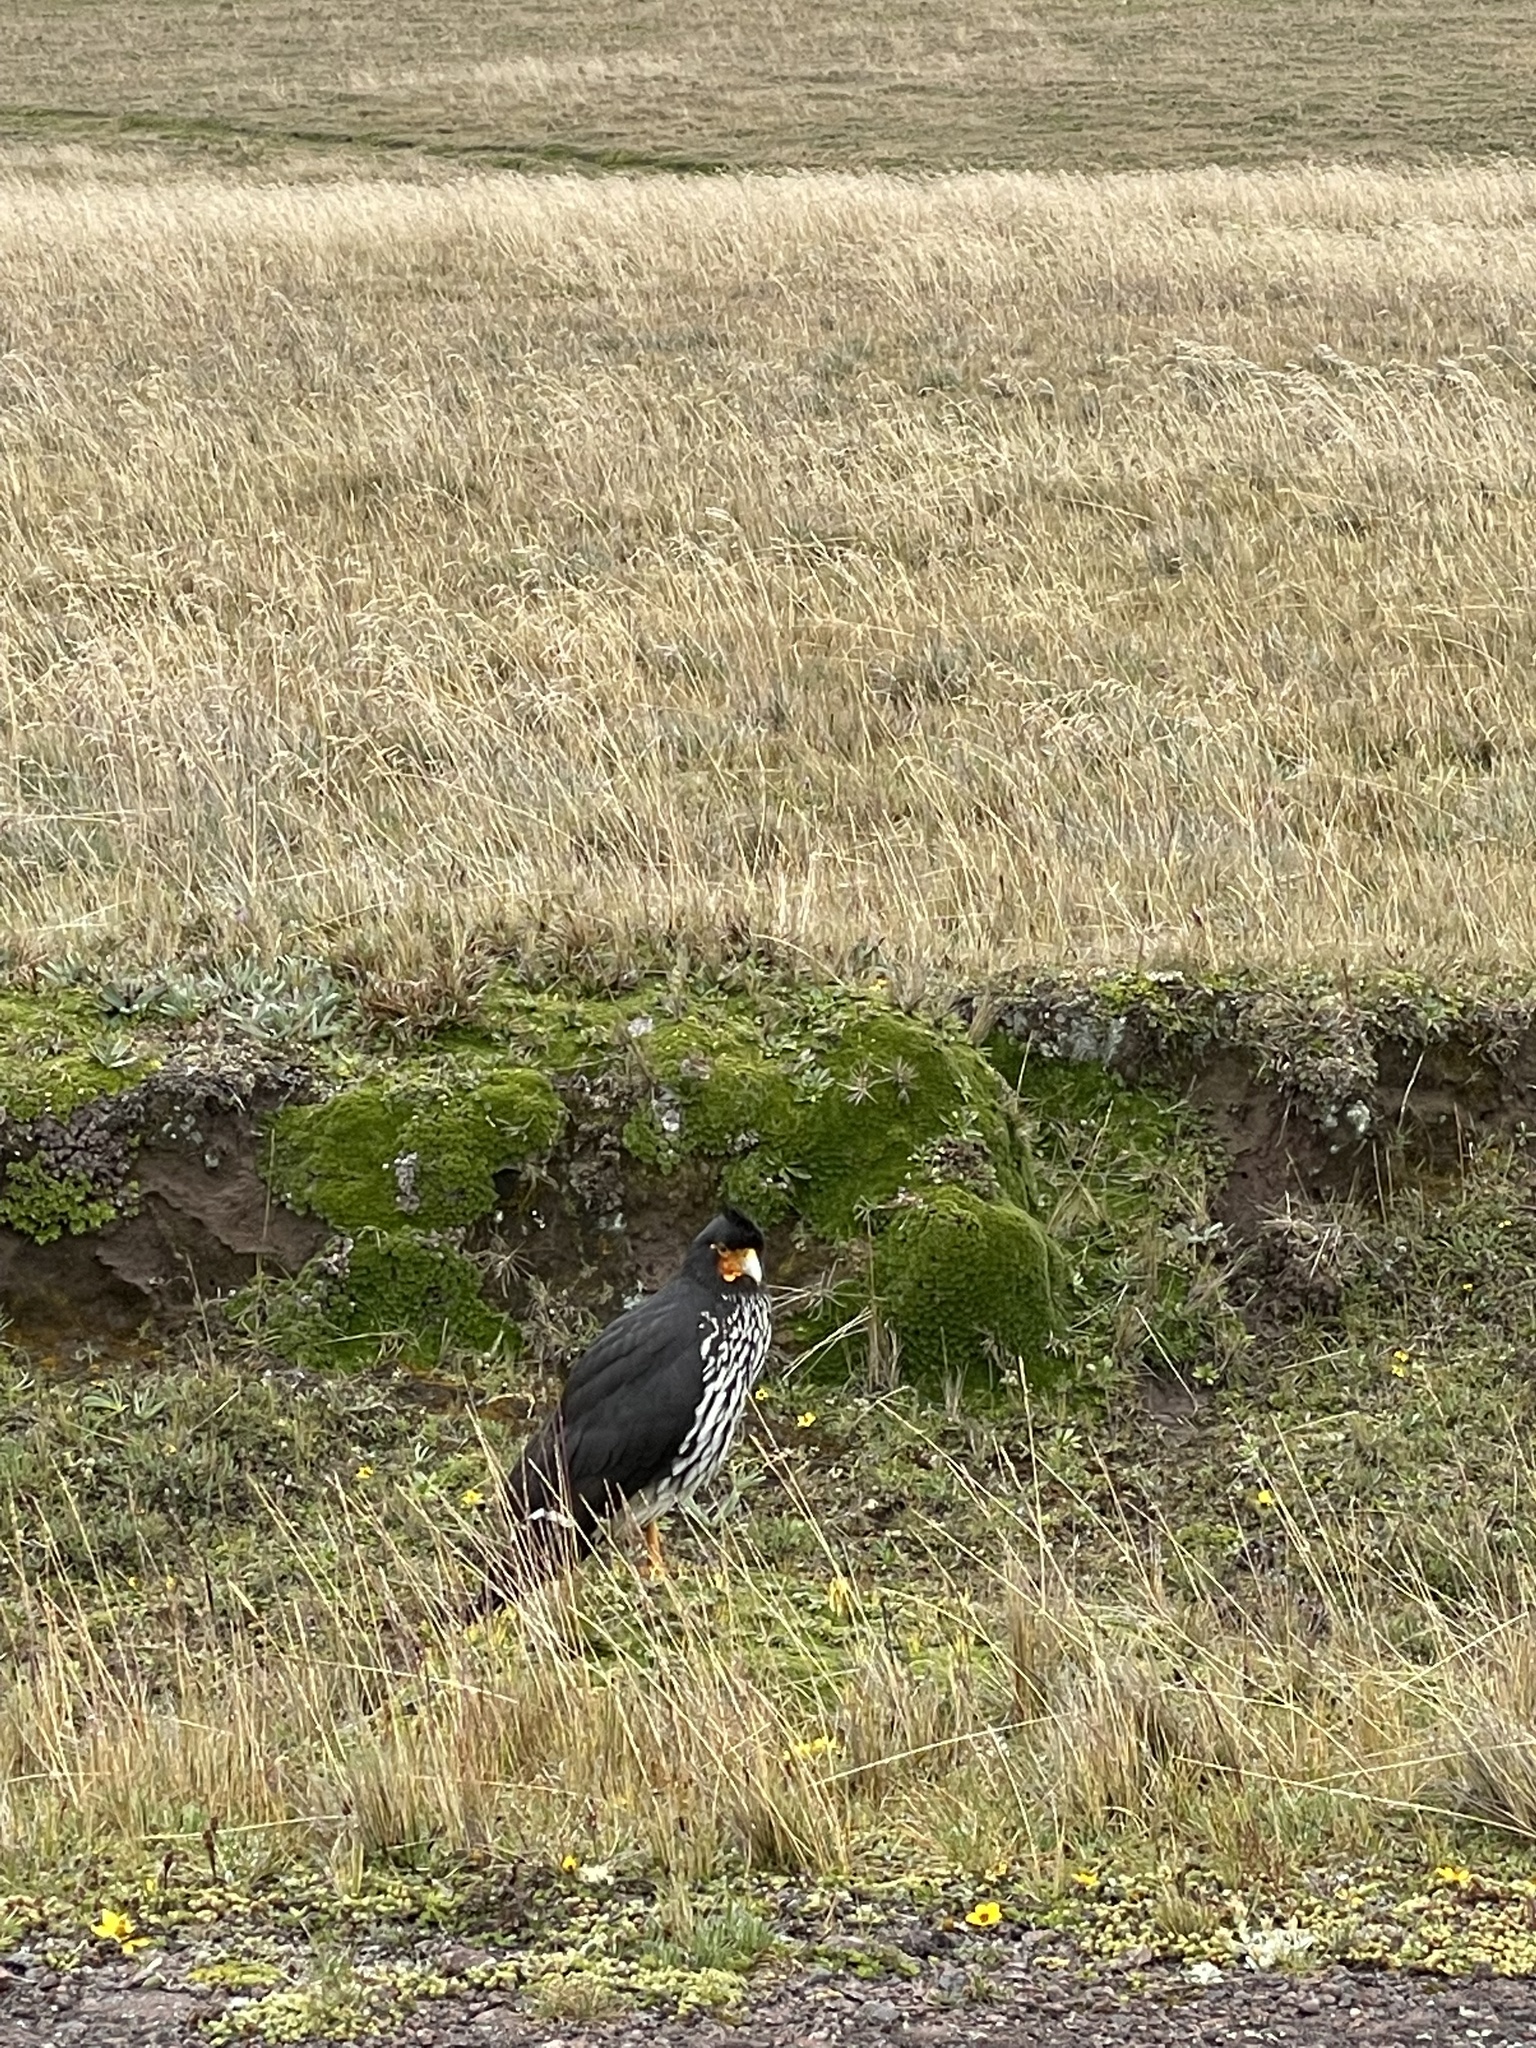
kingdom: Animalia
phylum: Chordata
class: Aves
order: Falconiformes
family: Falconidae
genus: Daptrius
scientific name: Daptrius
